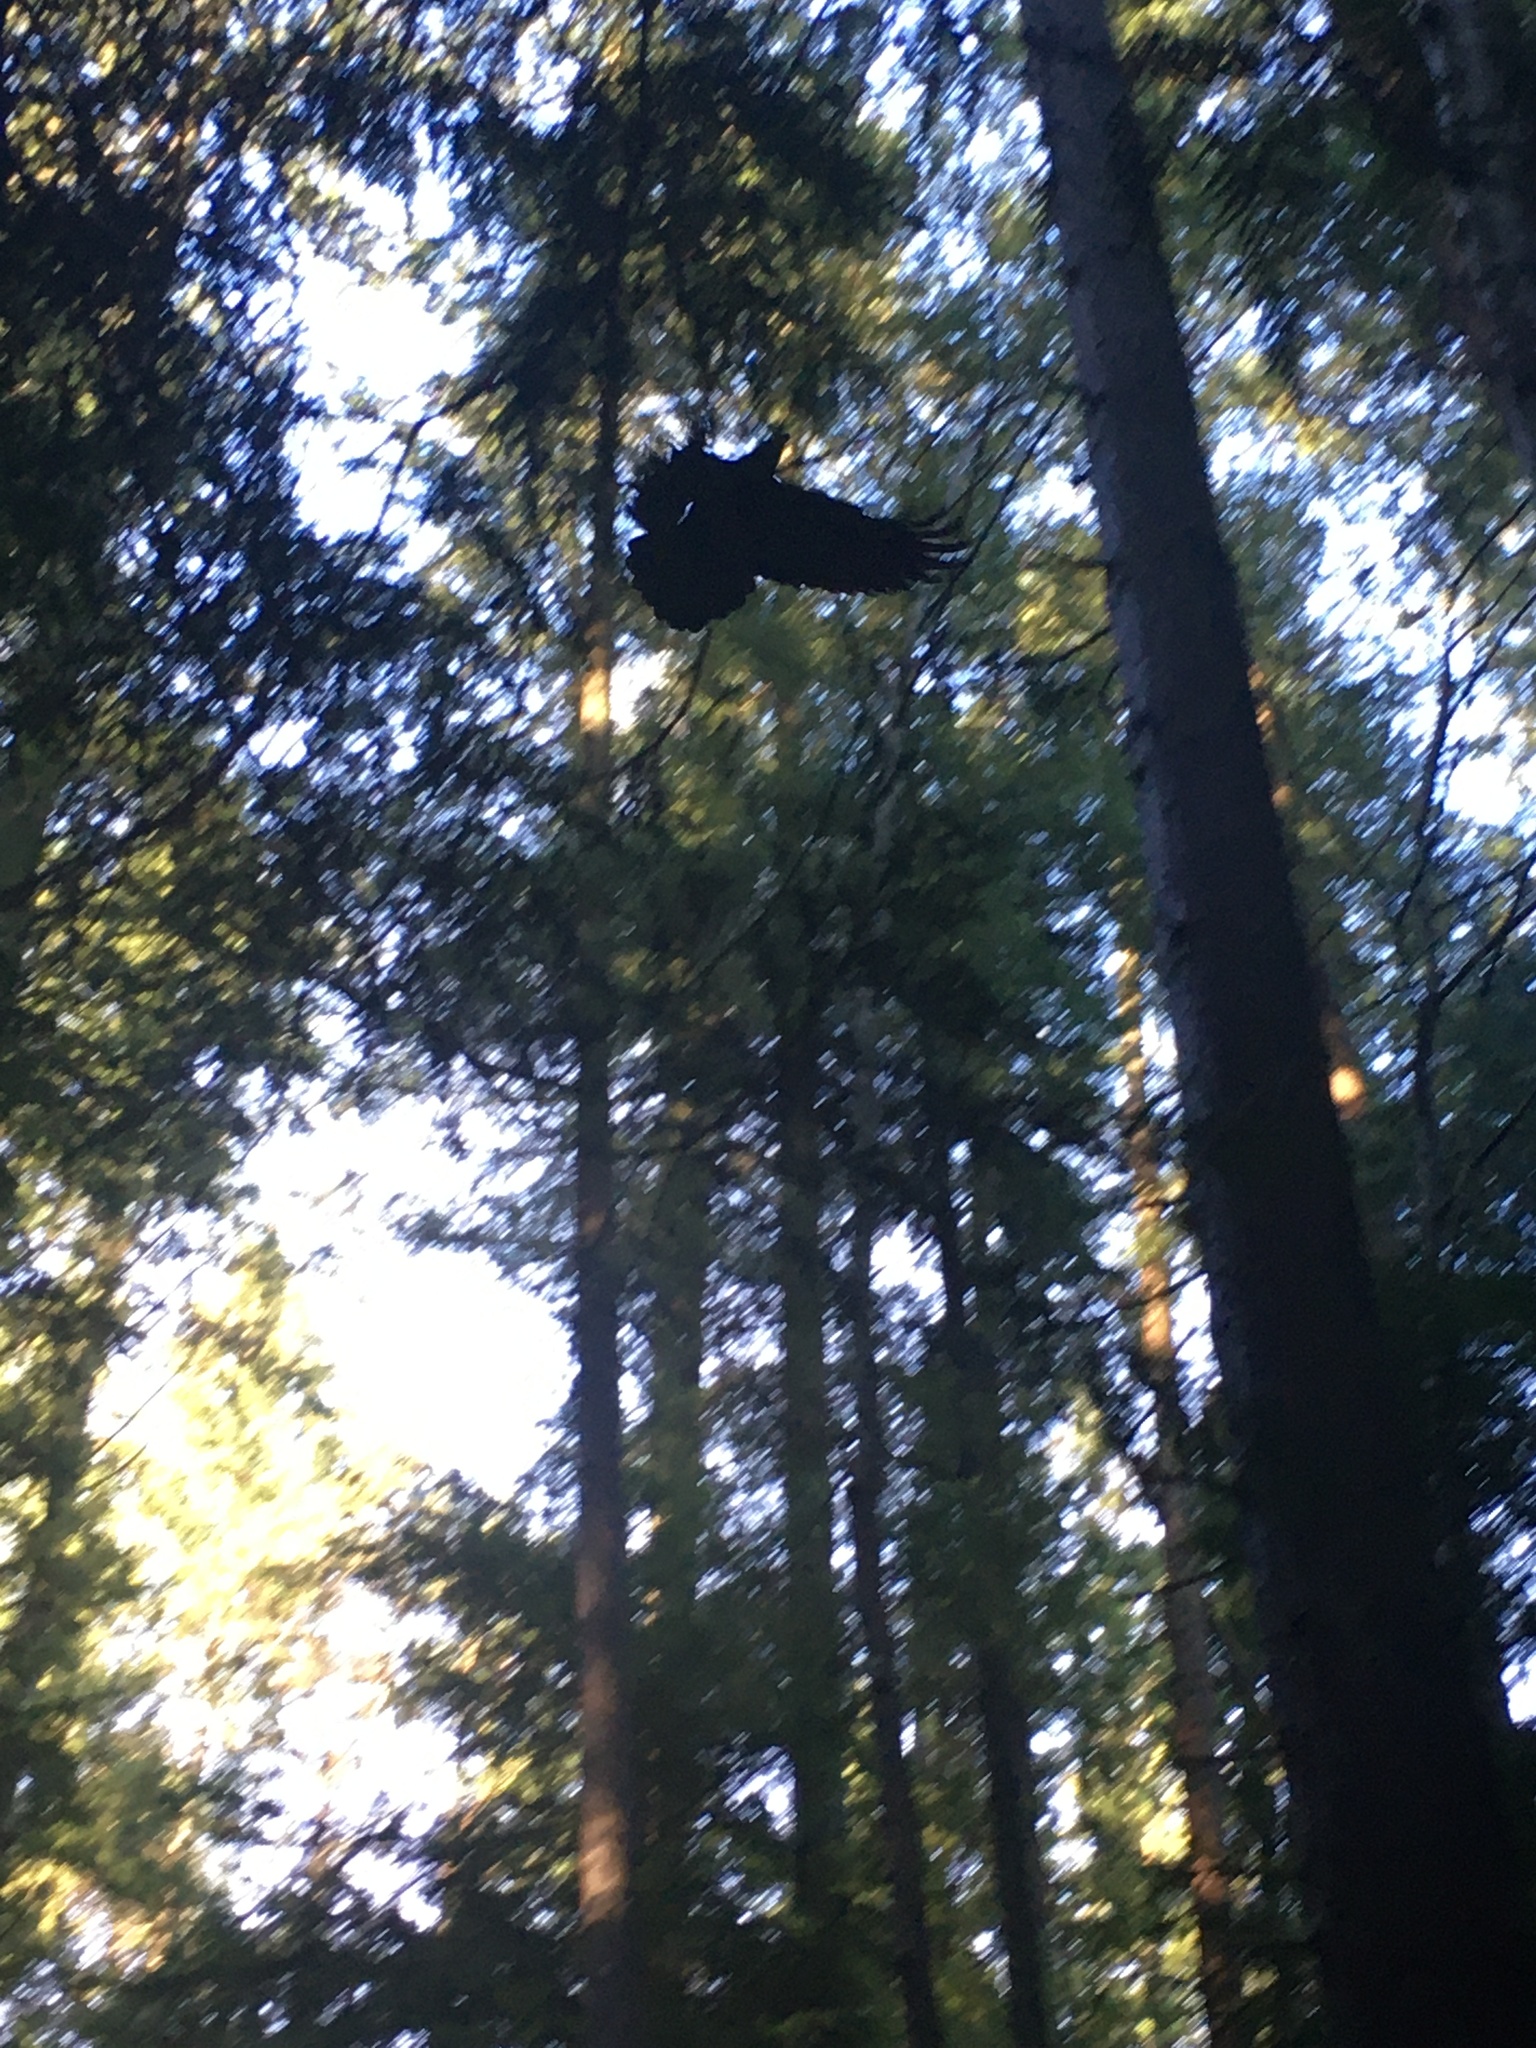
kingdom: Animalia
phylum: Chordata
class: Aves
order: Passeriformes
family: Corvidae
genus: Corvus
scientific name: Corvus corax
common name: Common raven
